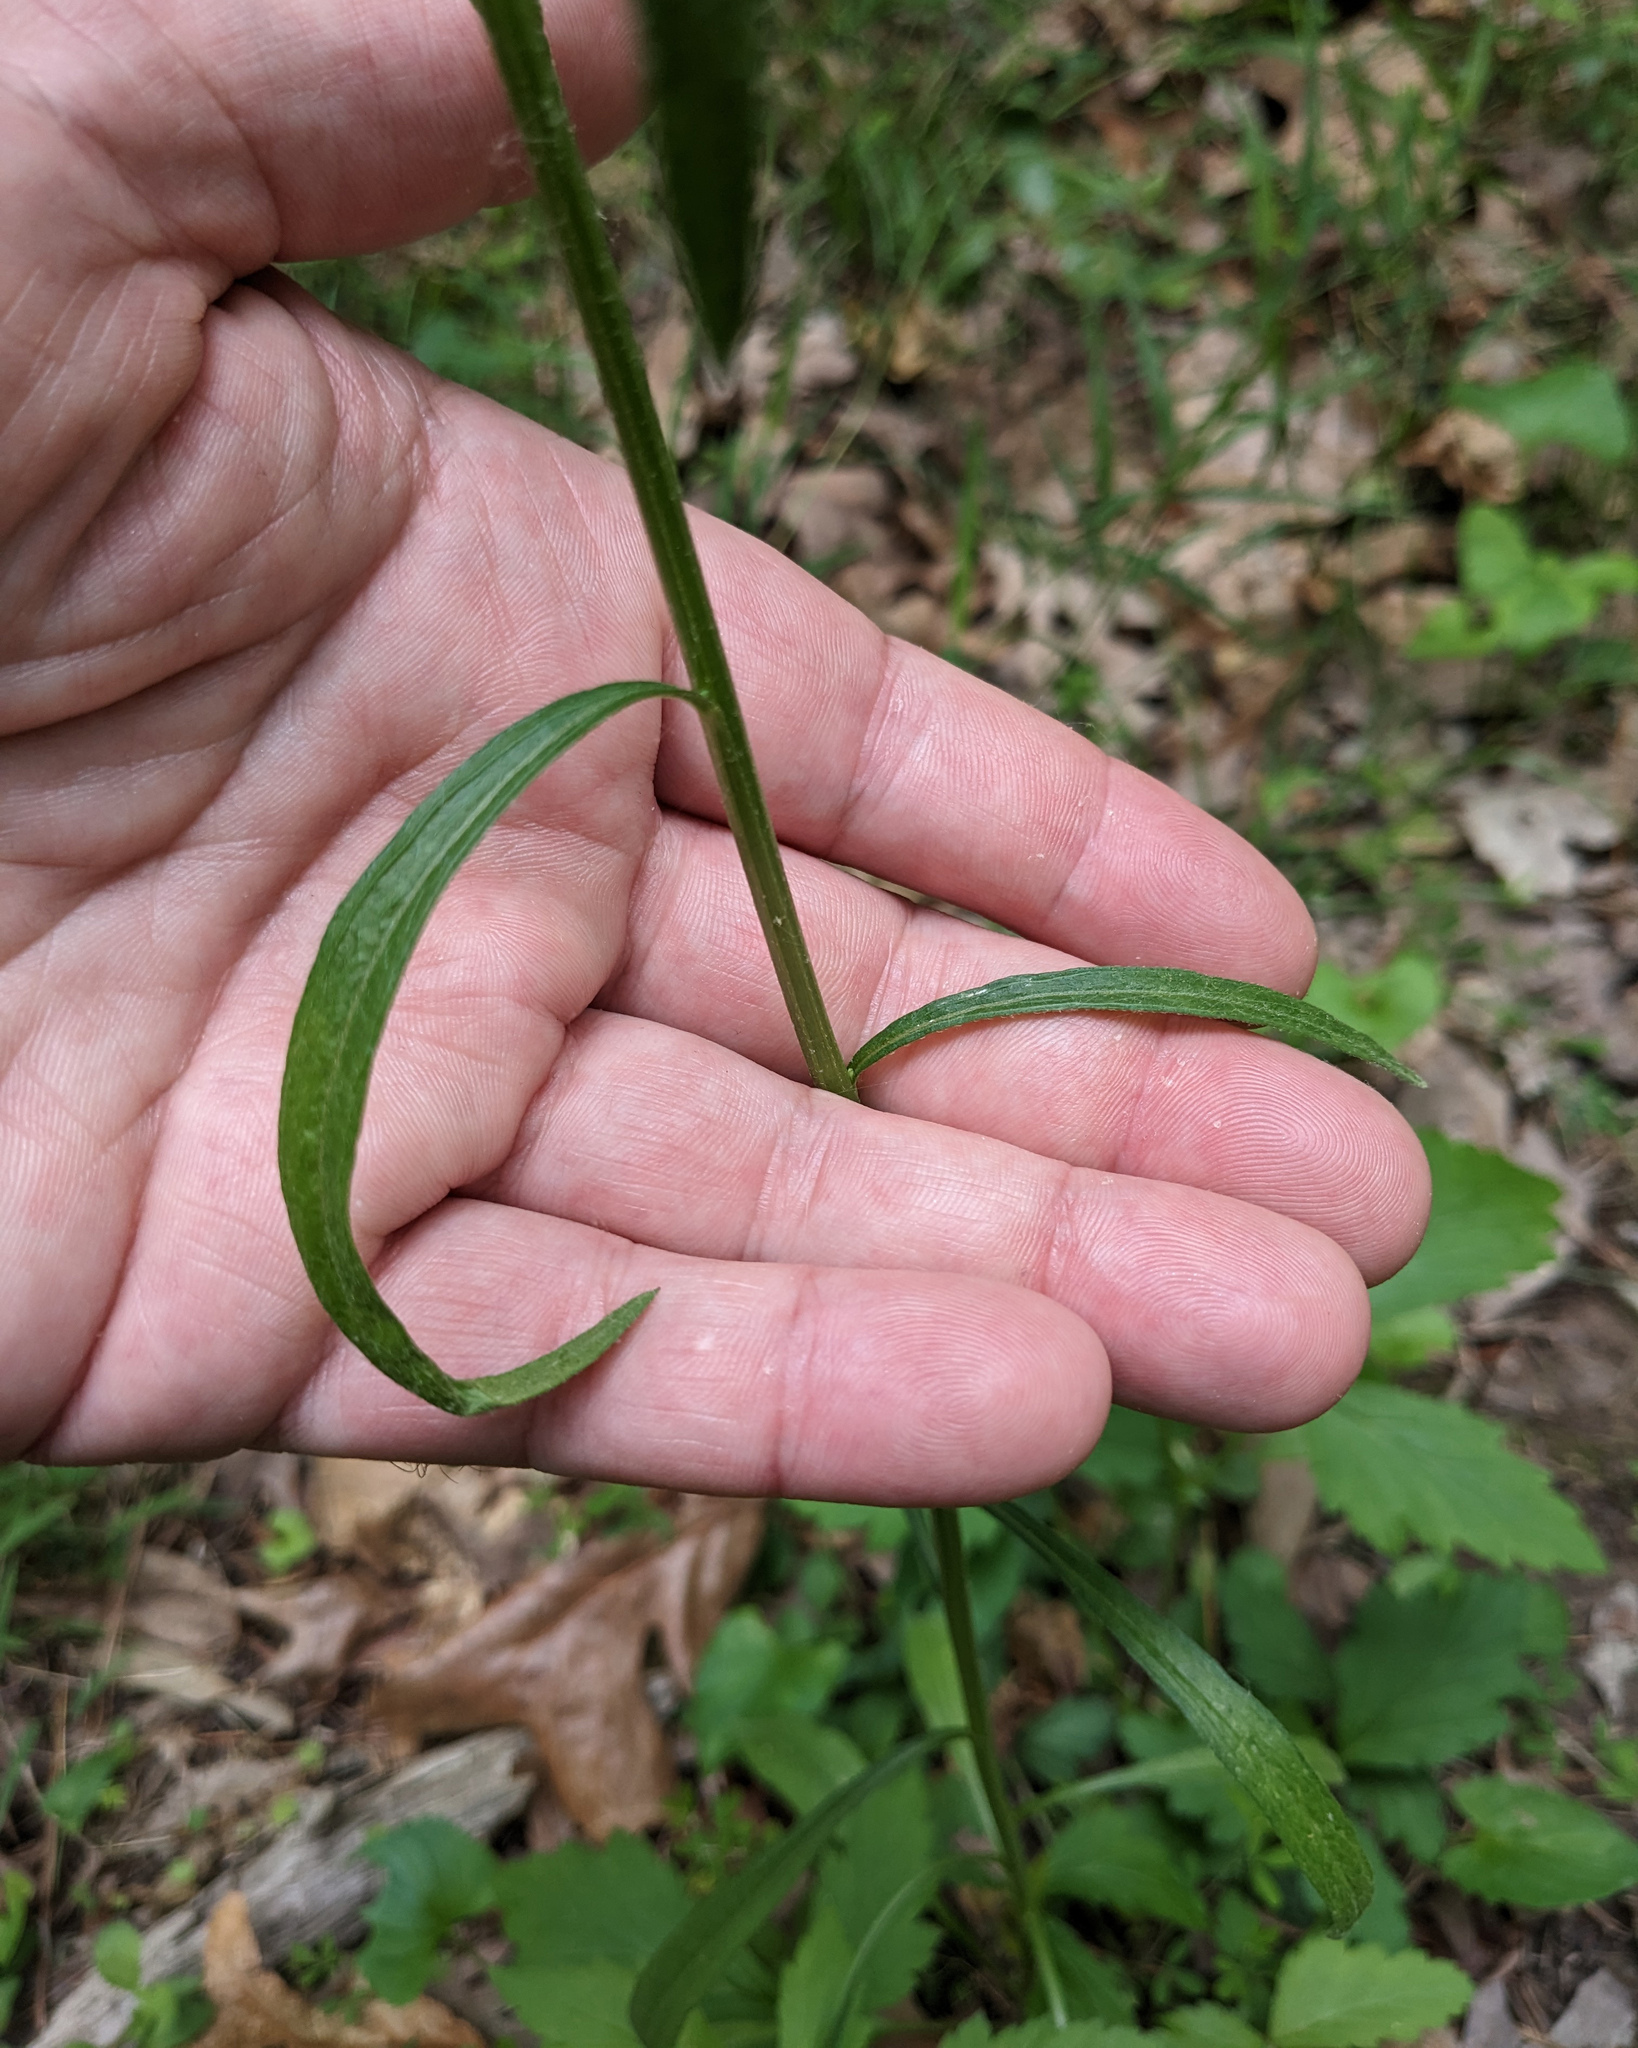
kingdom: Plantae
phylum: Tracheophyta
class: Magnoliopsida
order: Asterales
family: Asteraceae
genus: Erigeron
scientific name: Erigeron strigosus
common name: Common eastern fleabane
